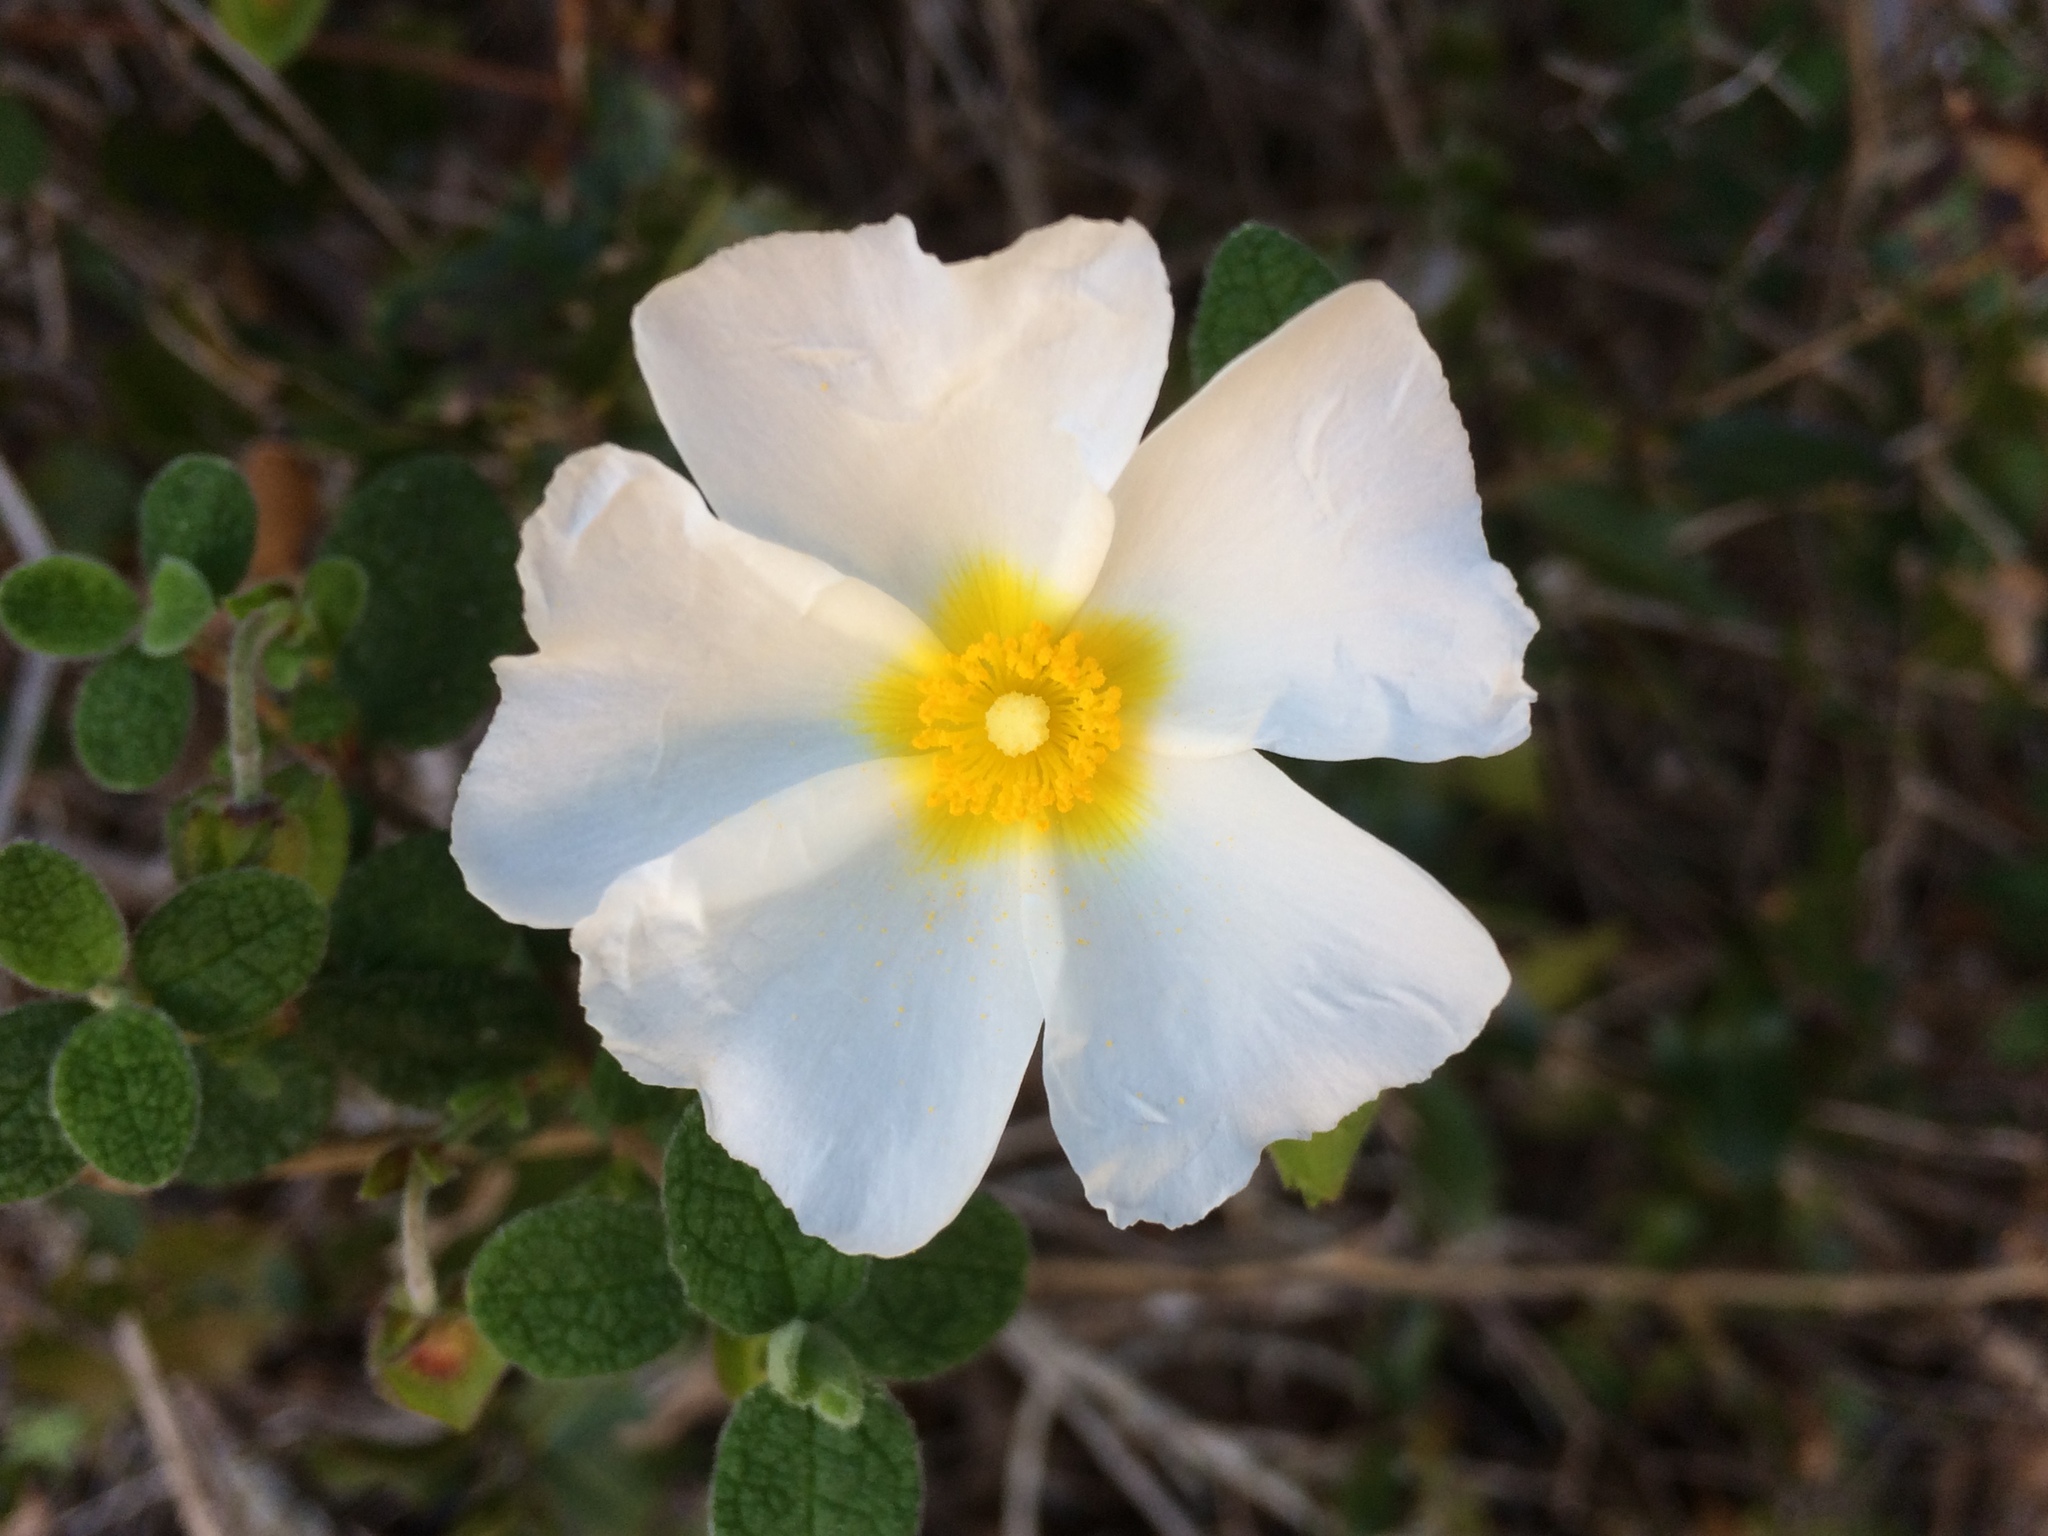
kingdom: Plantae
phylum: Tracheophyta
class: Magnoliopsida
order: Malvales
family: Cistaceae
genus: Cistus
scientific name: Cistus salviifolius
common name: Salvia cistus
